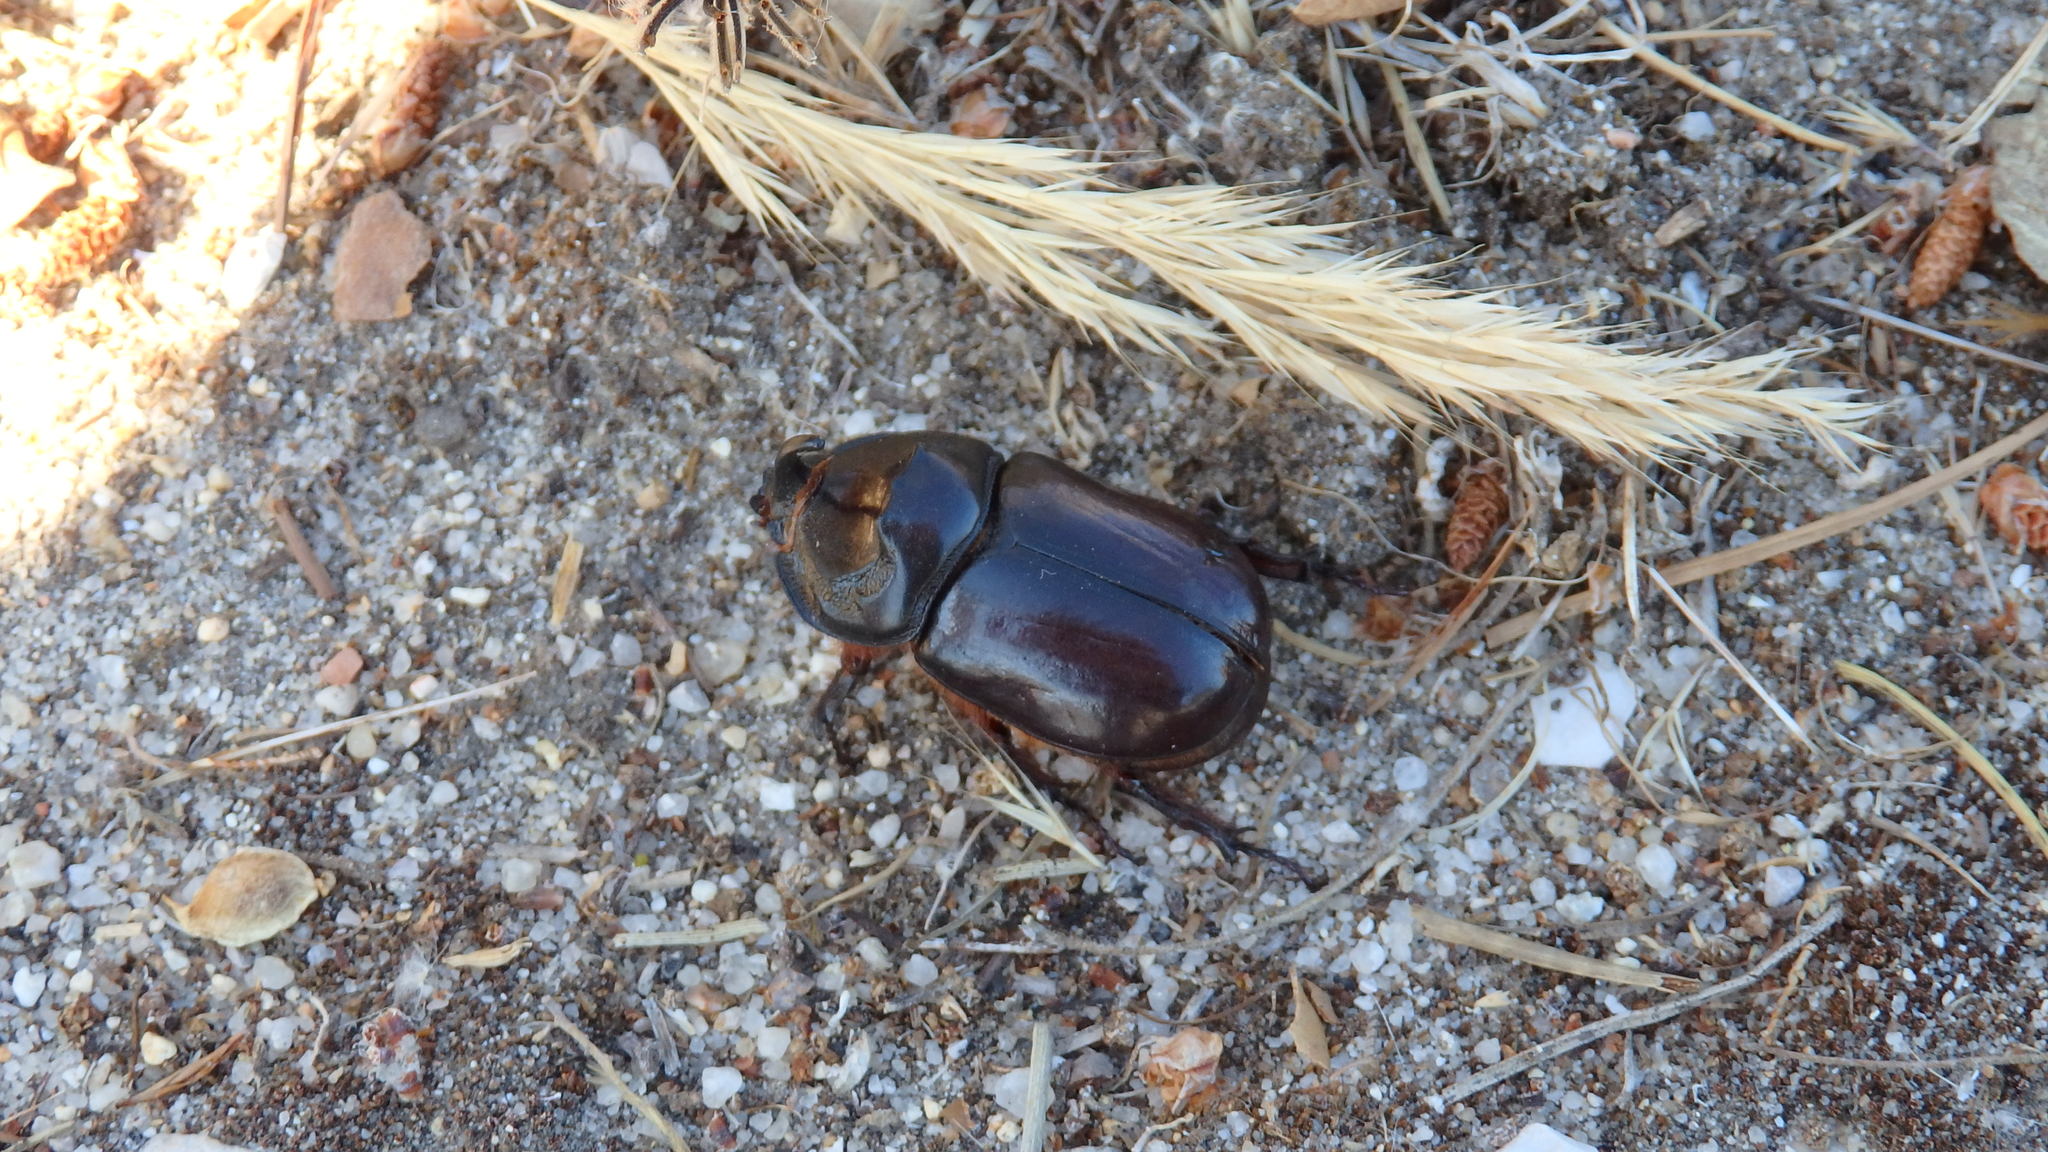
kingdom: Animalia
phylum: Arthropoda
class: Insecta
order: Coleoptera
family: Scarabaeidae
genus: Oryctes
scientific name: Oryctes nasicornis
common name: European rhinoceros beetle
